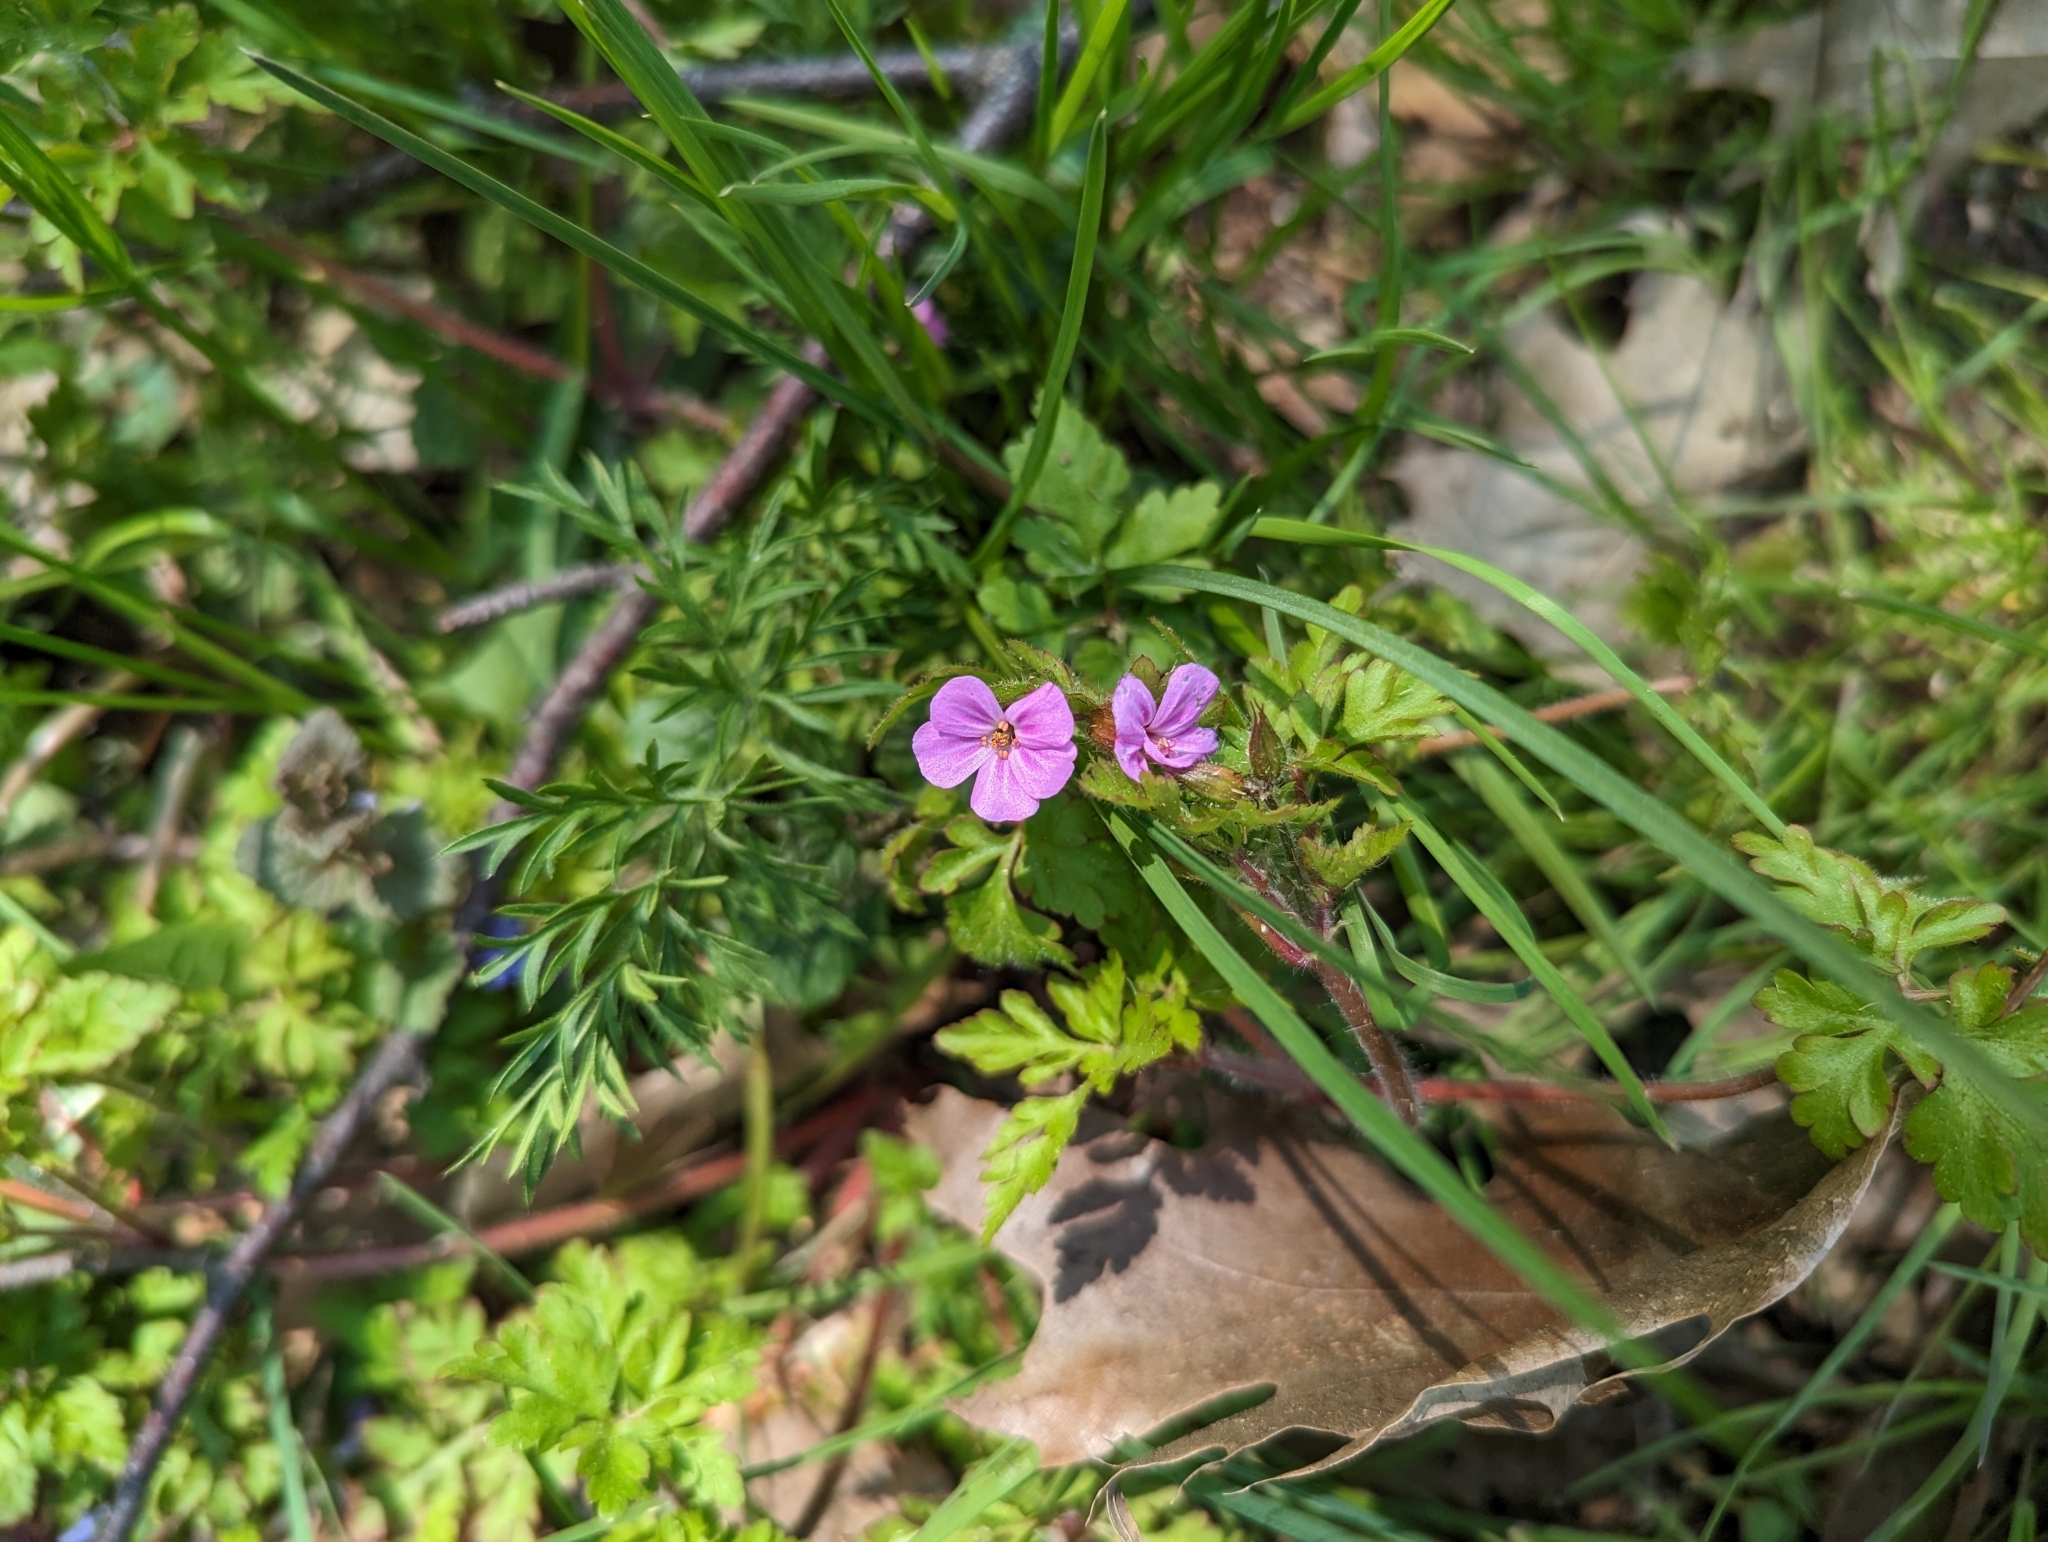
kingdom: Plantae
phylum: Tracheophyta
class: Magnoliopsida
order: Geraniales
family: Geraniaceae
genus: Geranium
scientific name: Geranium robertianum
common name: Herb-robert
